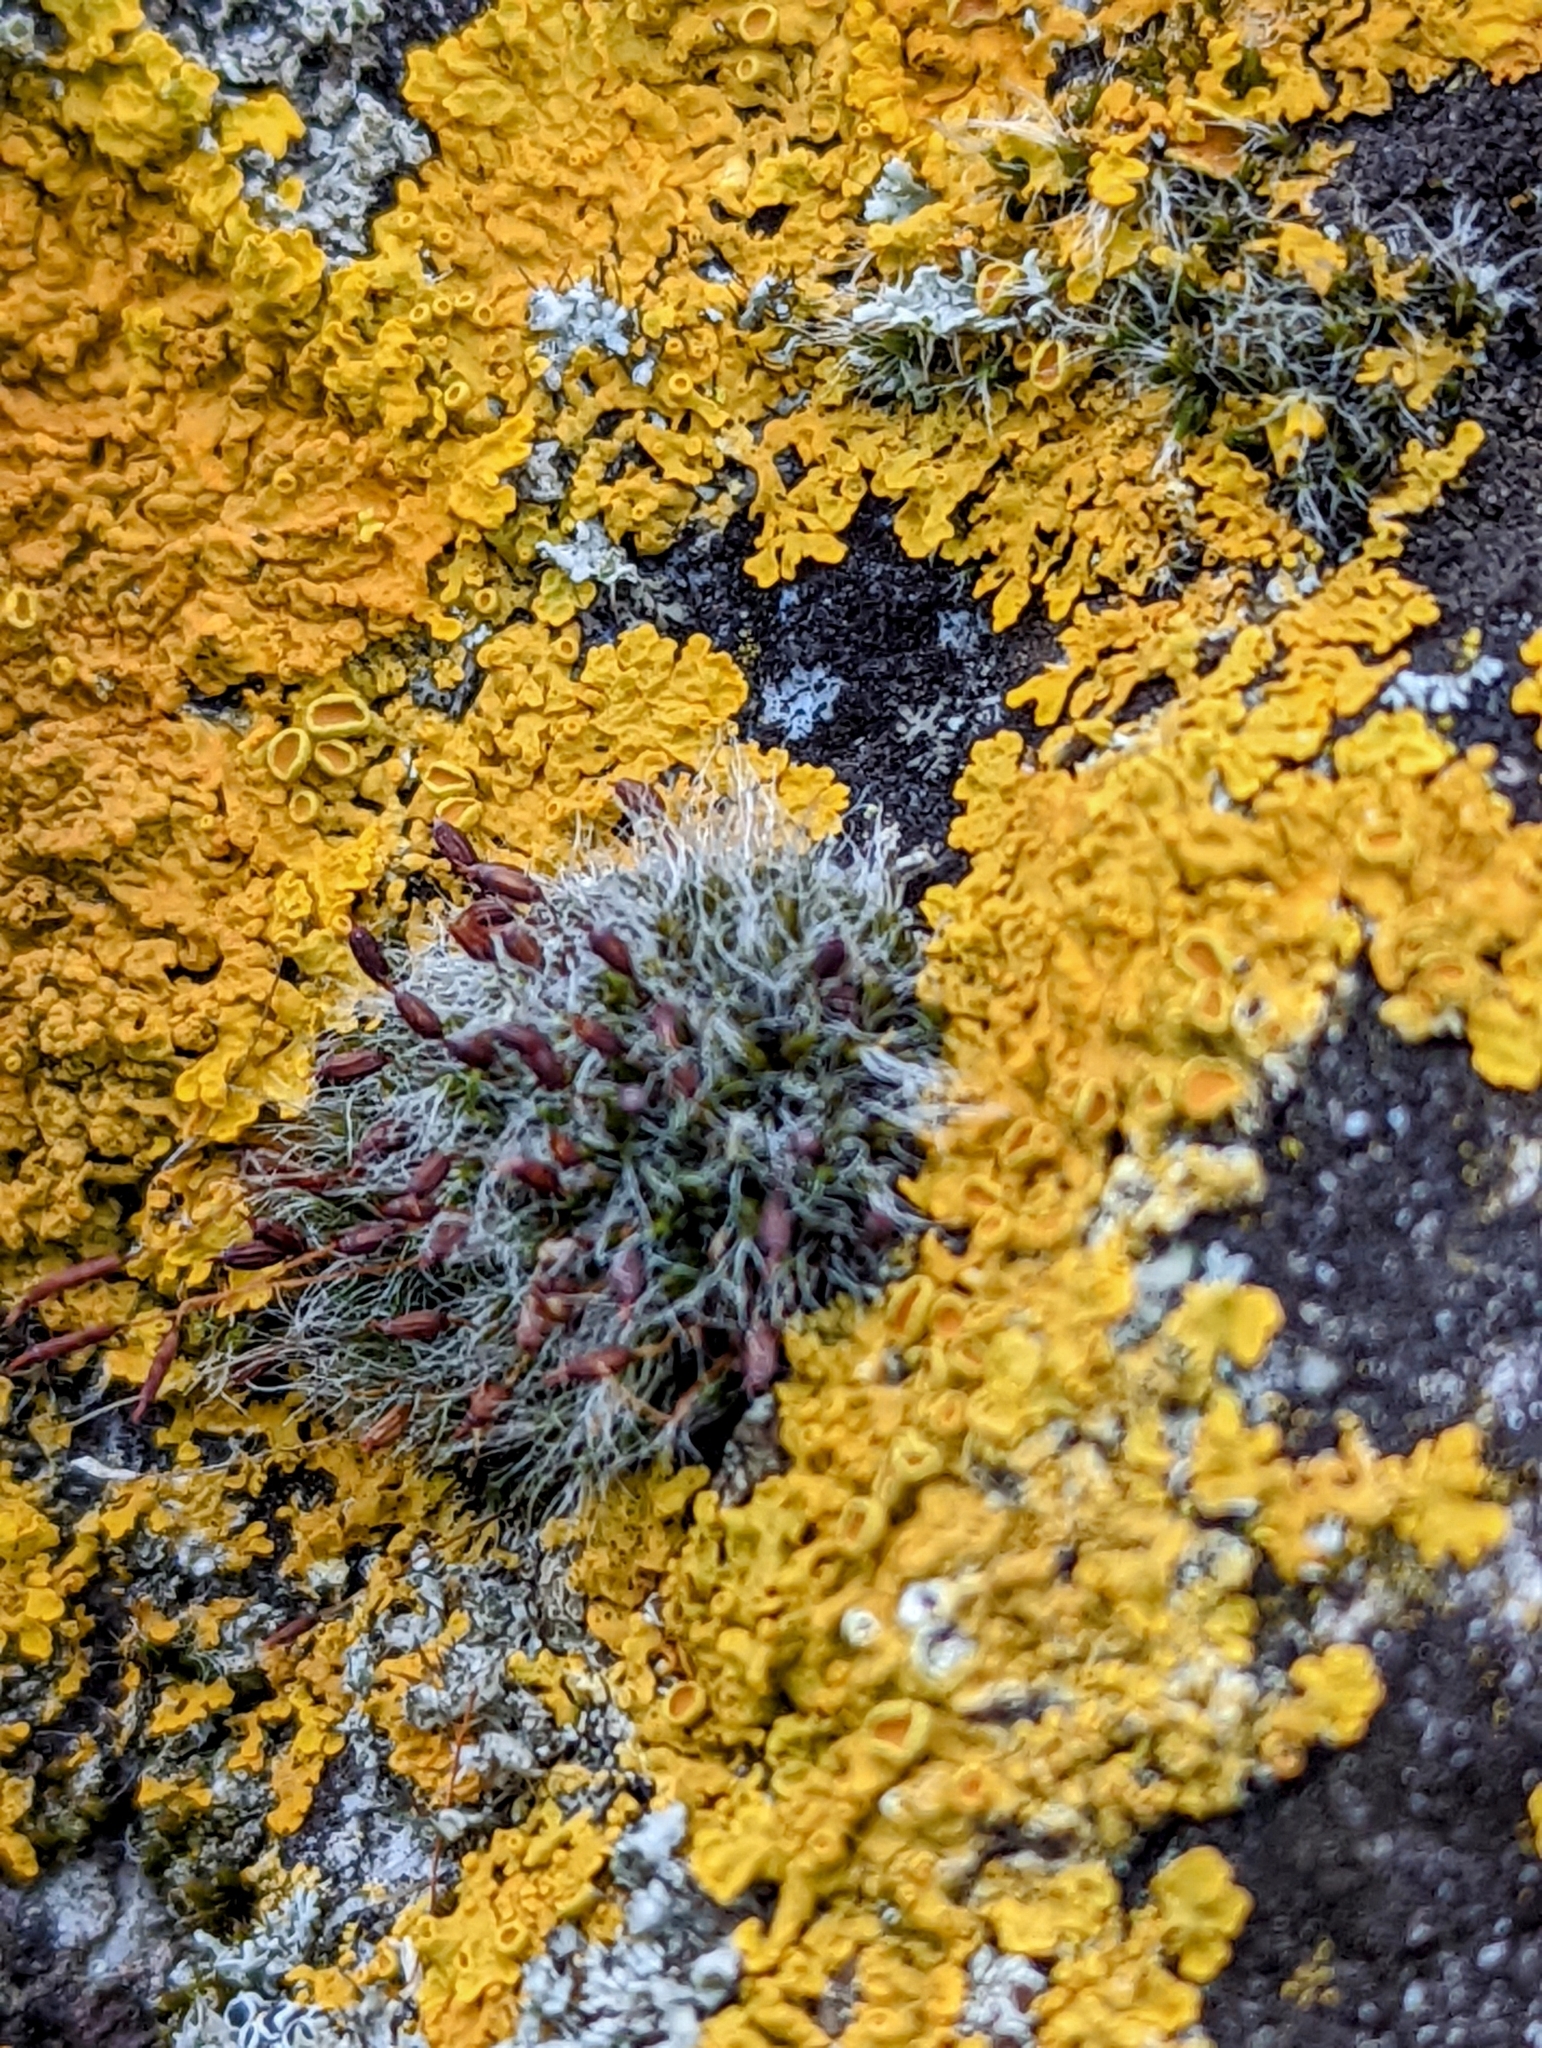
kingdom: Plantae
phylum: Bryophyta
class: Bryopsida
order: Grimmiales
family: Grimmiaceae
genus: Grimmia
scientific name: Grimmia pulvinata
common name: Grey-cushioned grimmia
